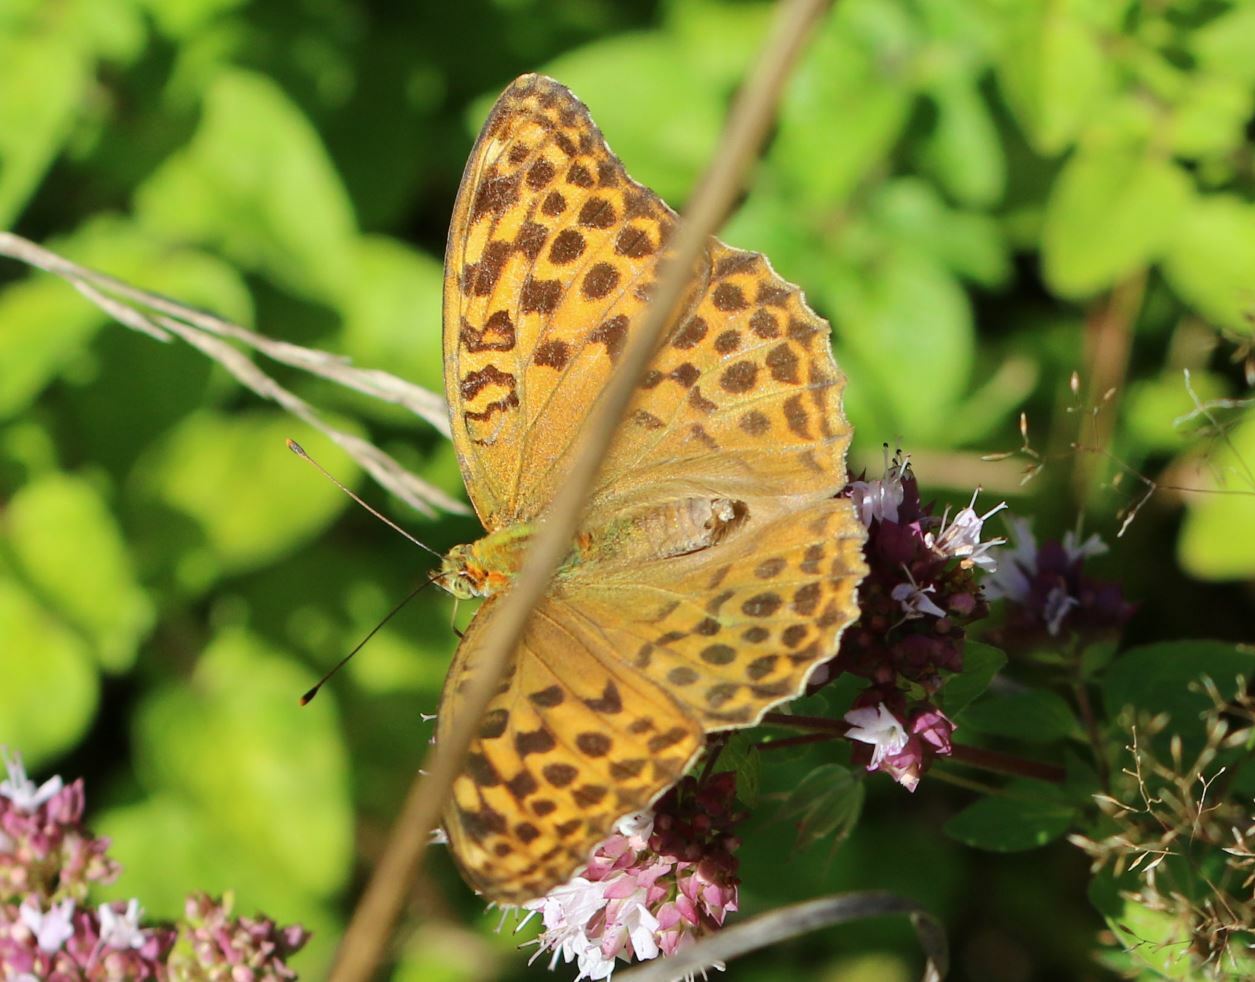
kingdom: Animalia
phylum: Arthropoda
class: Insecta
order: Lepidoptera
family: Nymphalidae
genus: Argynnis
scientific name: Argynnis paphia
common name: Silver-washed fritillary
